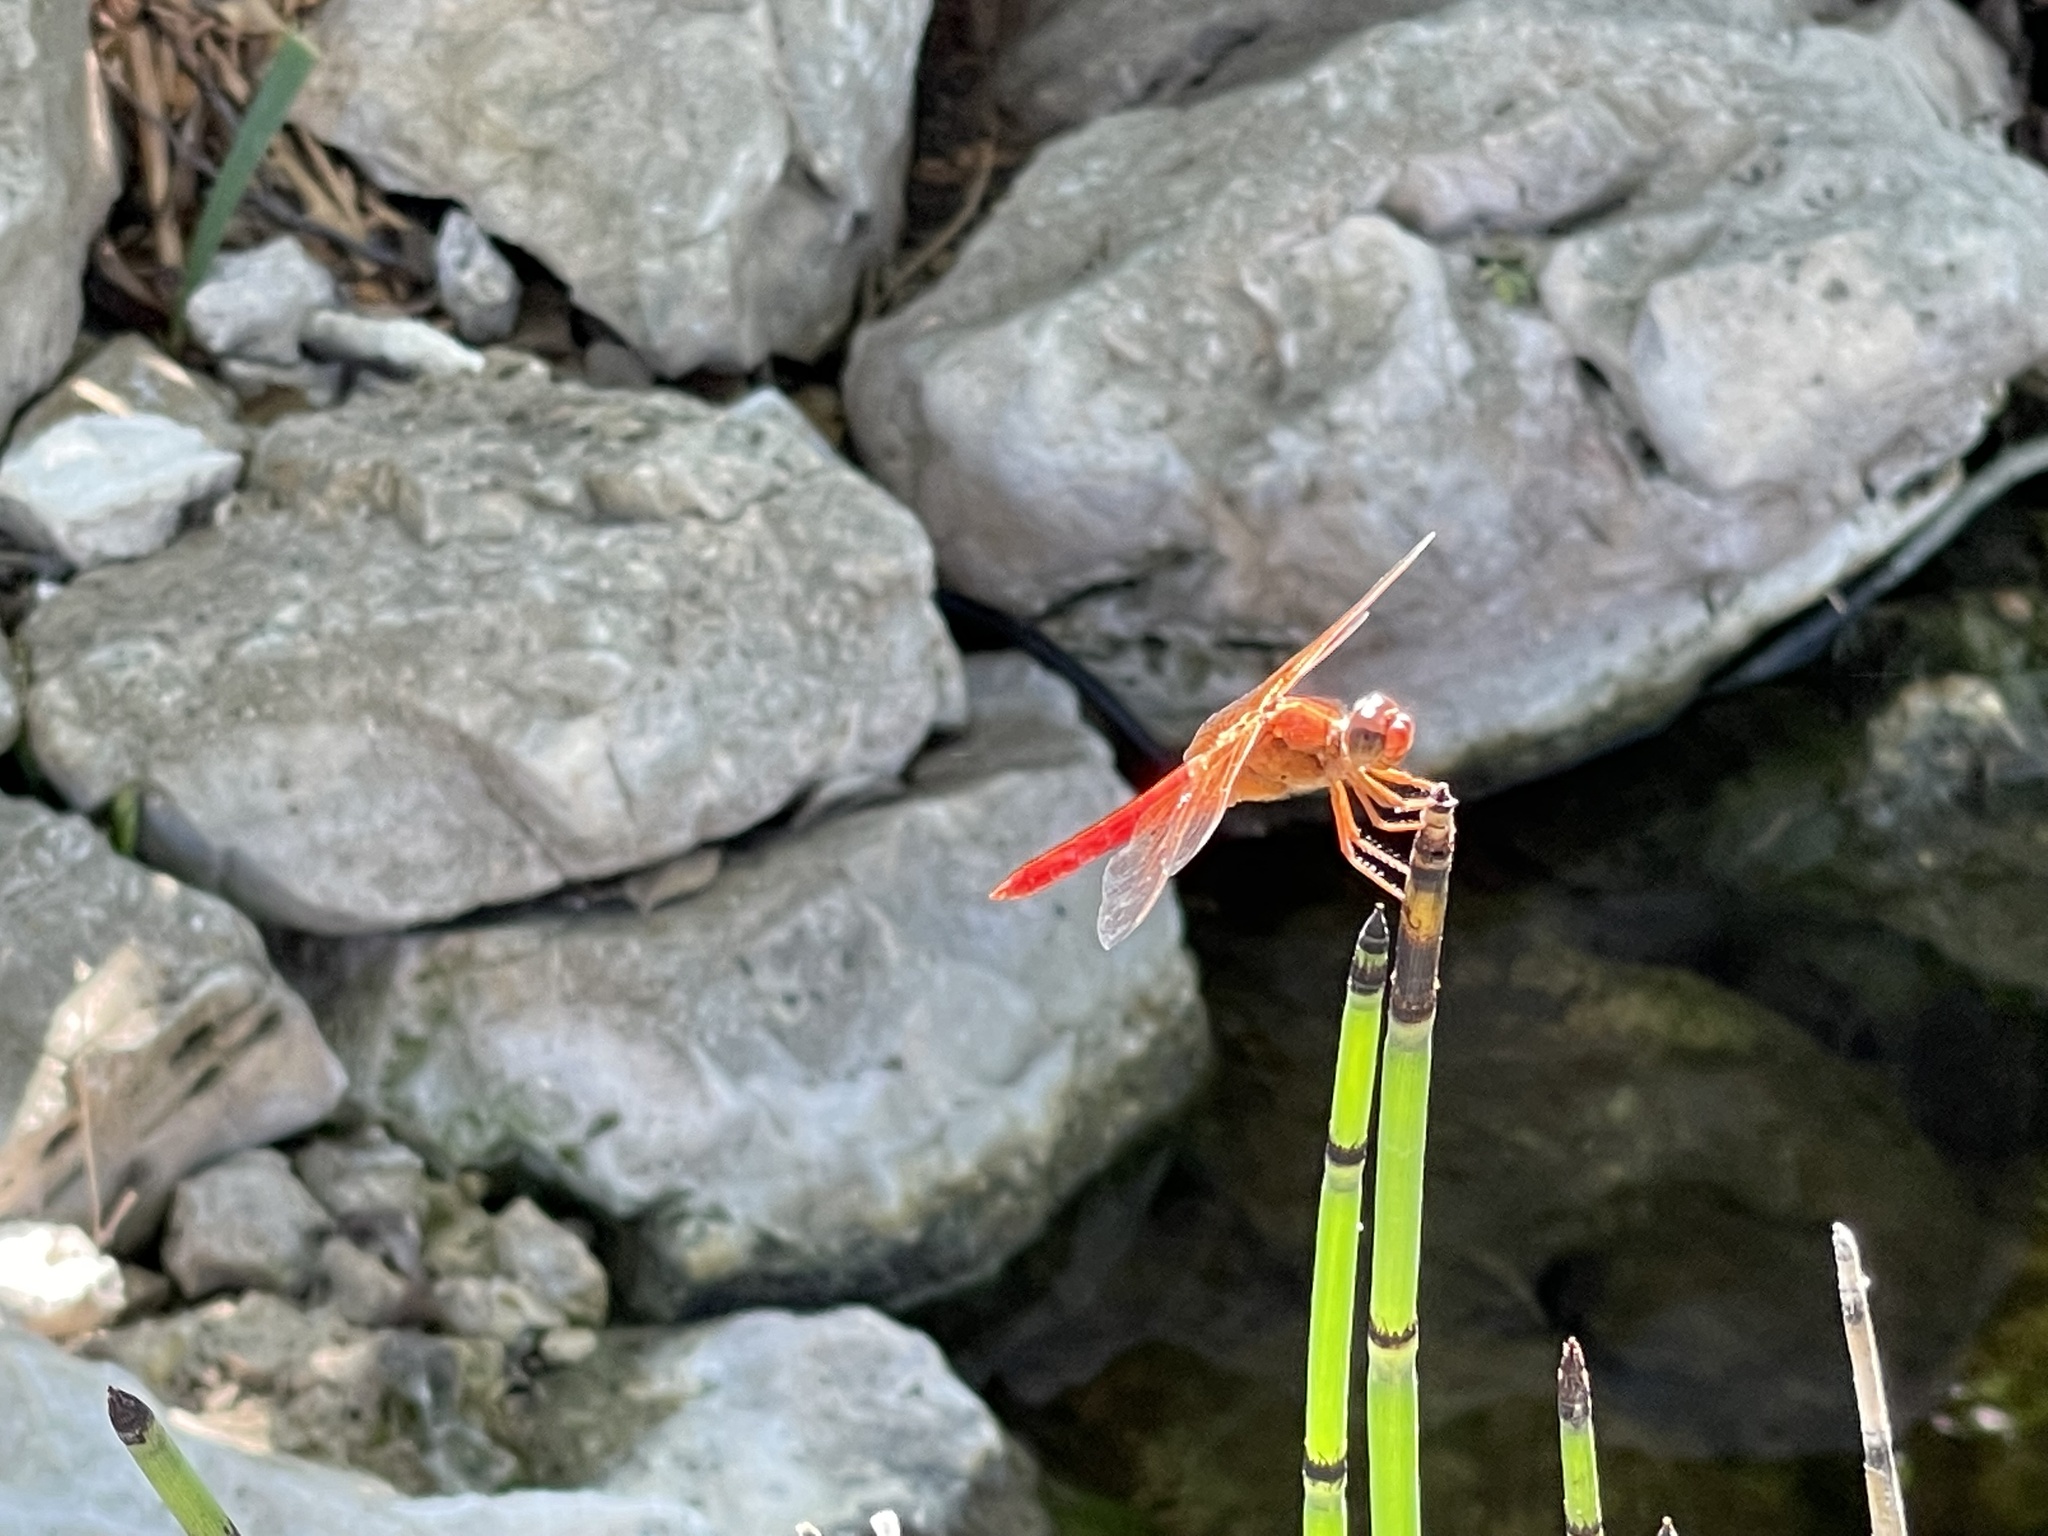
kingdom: Animalia
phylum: Arthropoda
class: Insecta
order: Odonata
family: Libellulidae
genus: Libellula
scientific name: Libellula croceipennis
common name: Neon skimmer
